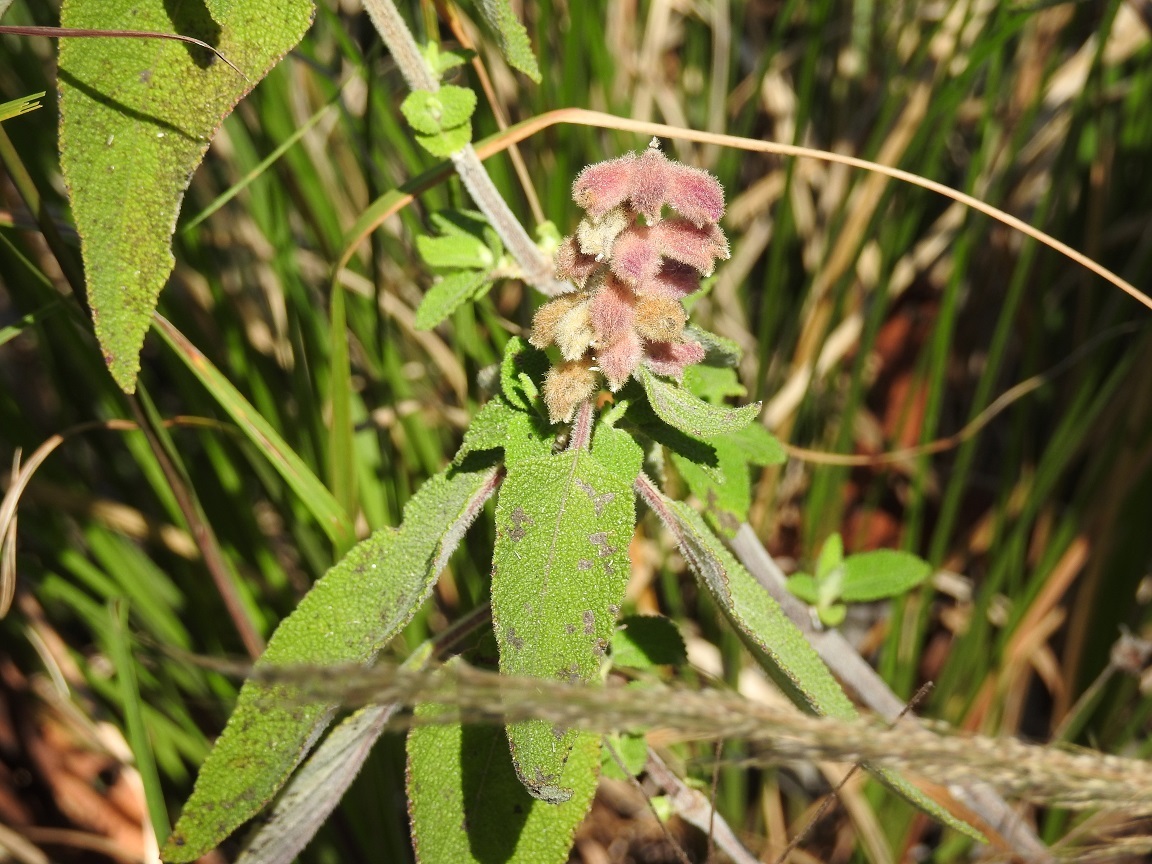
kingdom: Plantae
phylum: Tracheophyta
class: Magnoliopsida
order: Lamiales
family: Lamiaceae
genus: Salvia
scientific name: Salvia lasiantha
